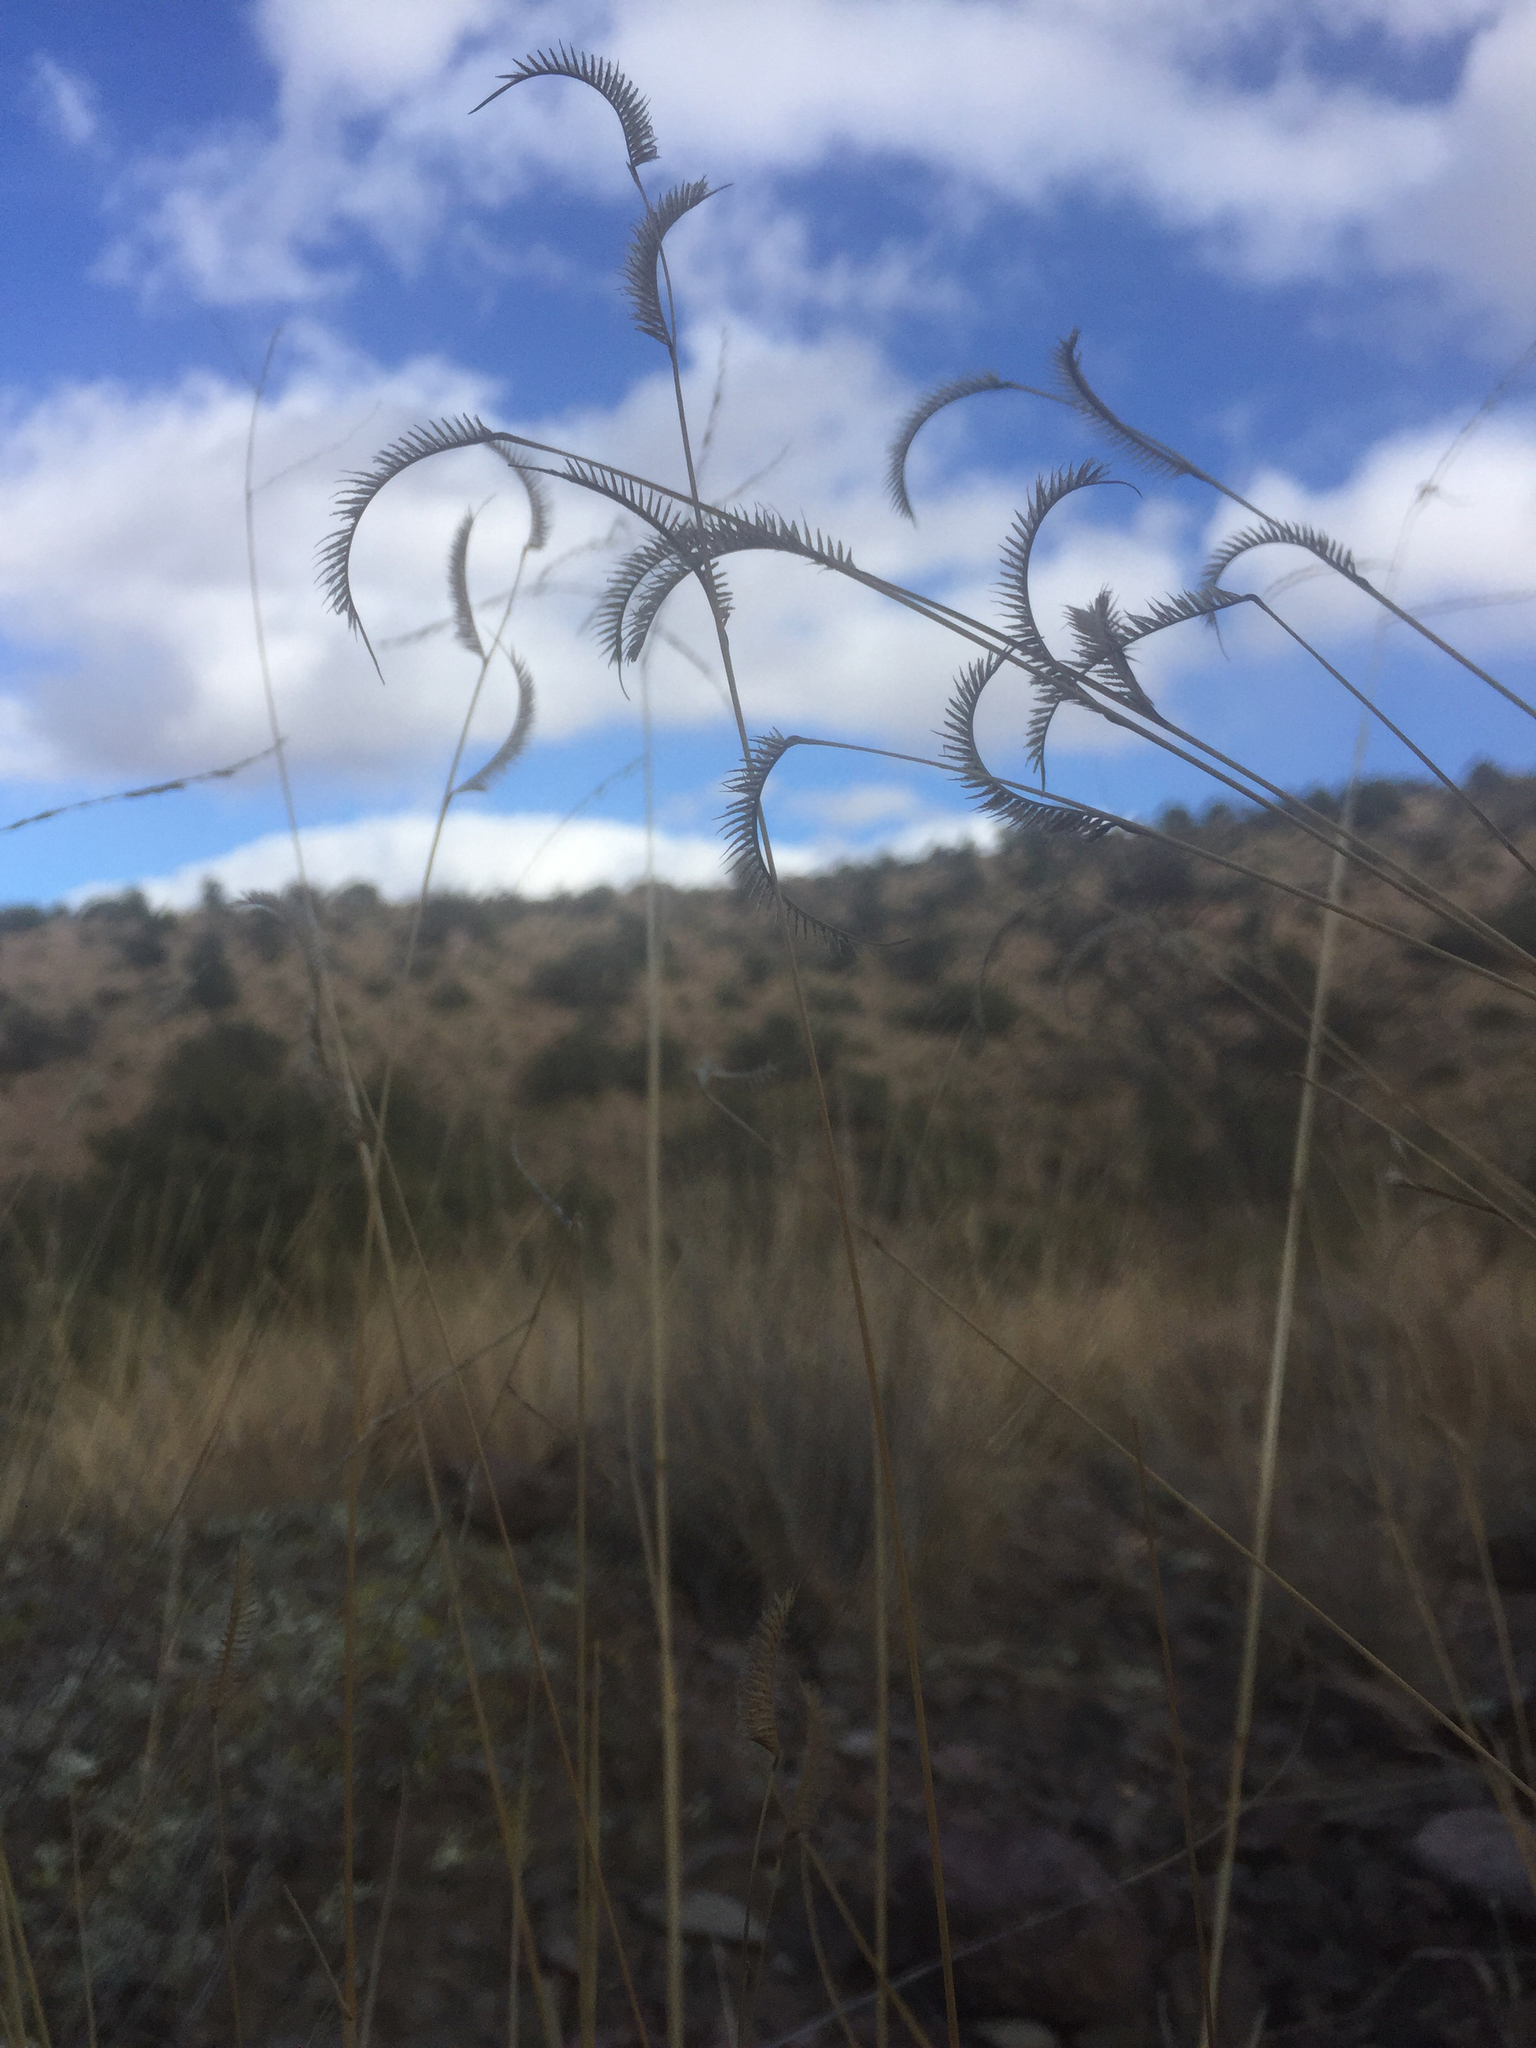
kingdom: Plantae
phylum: Tracheophyta
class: Liliopsida
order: Poales
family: Poaceae
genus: Bouteloua
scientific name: Bouteloua hirsuta
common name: Hairy grama
